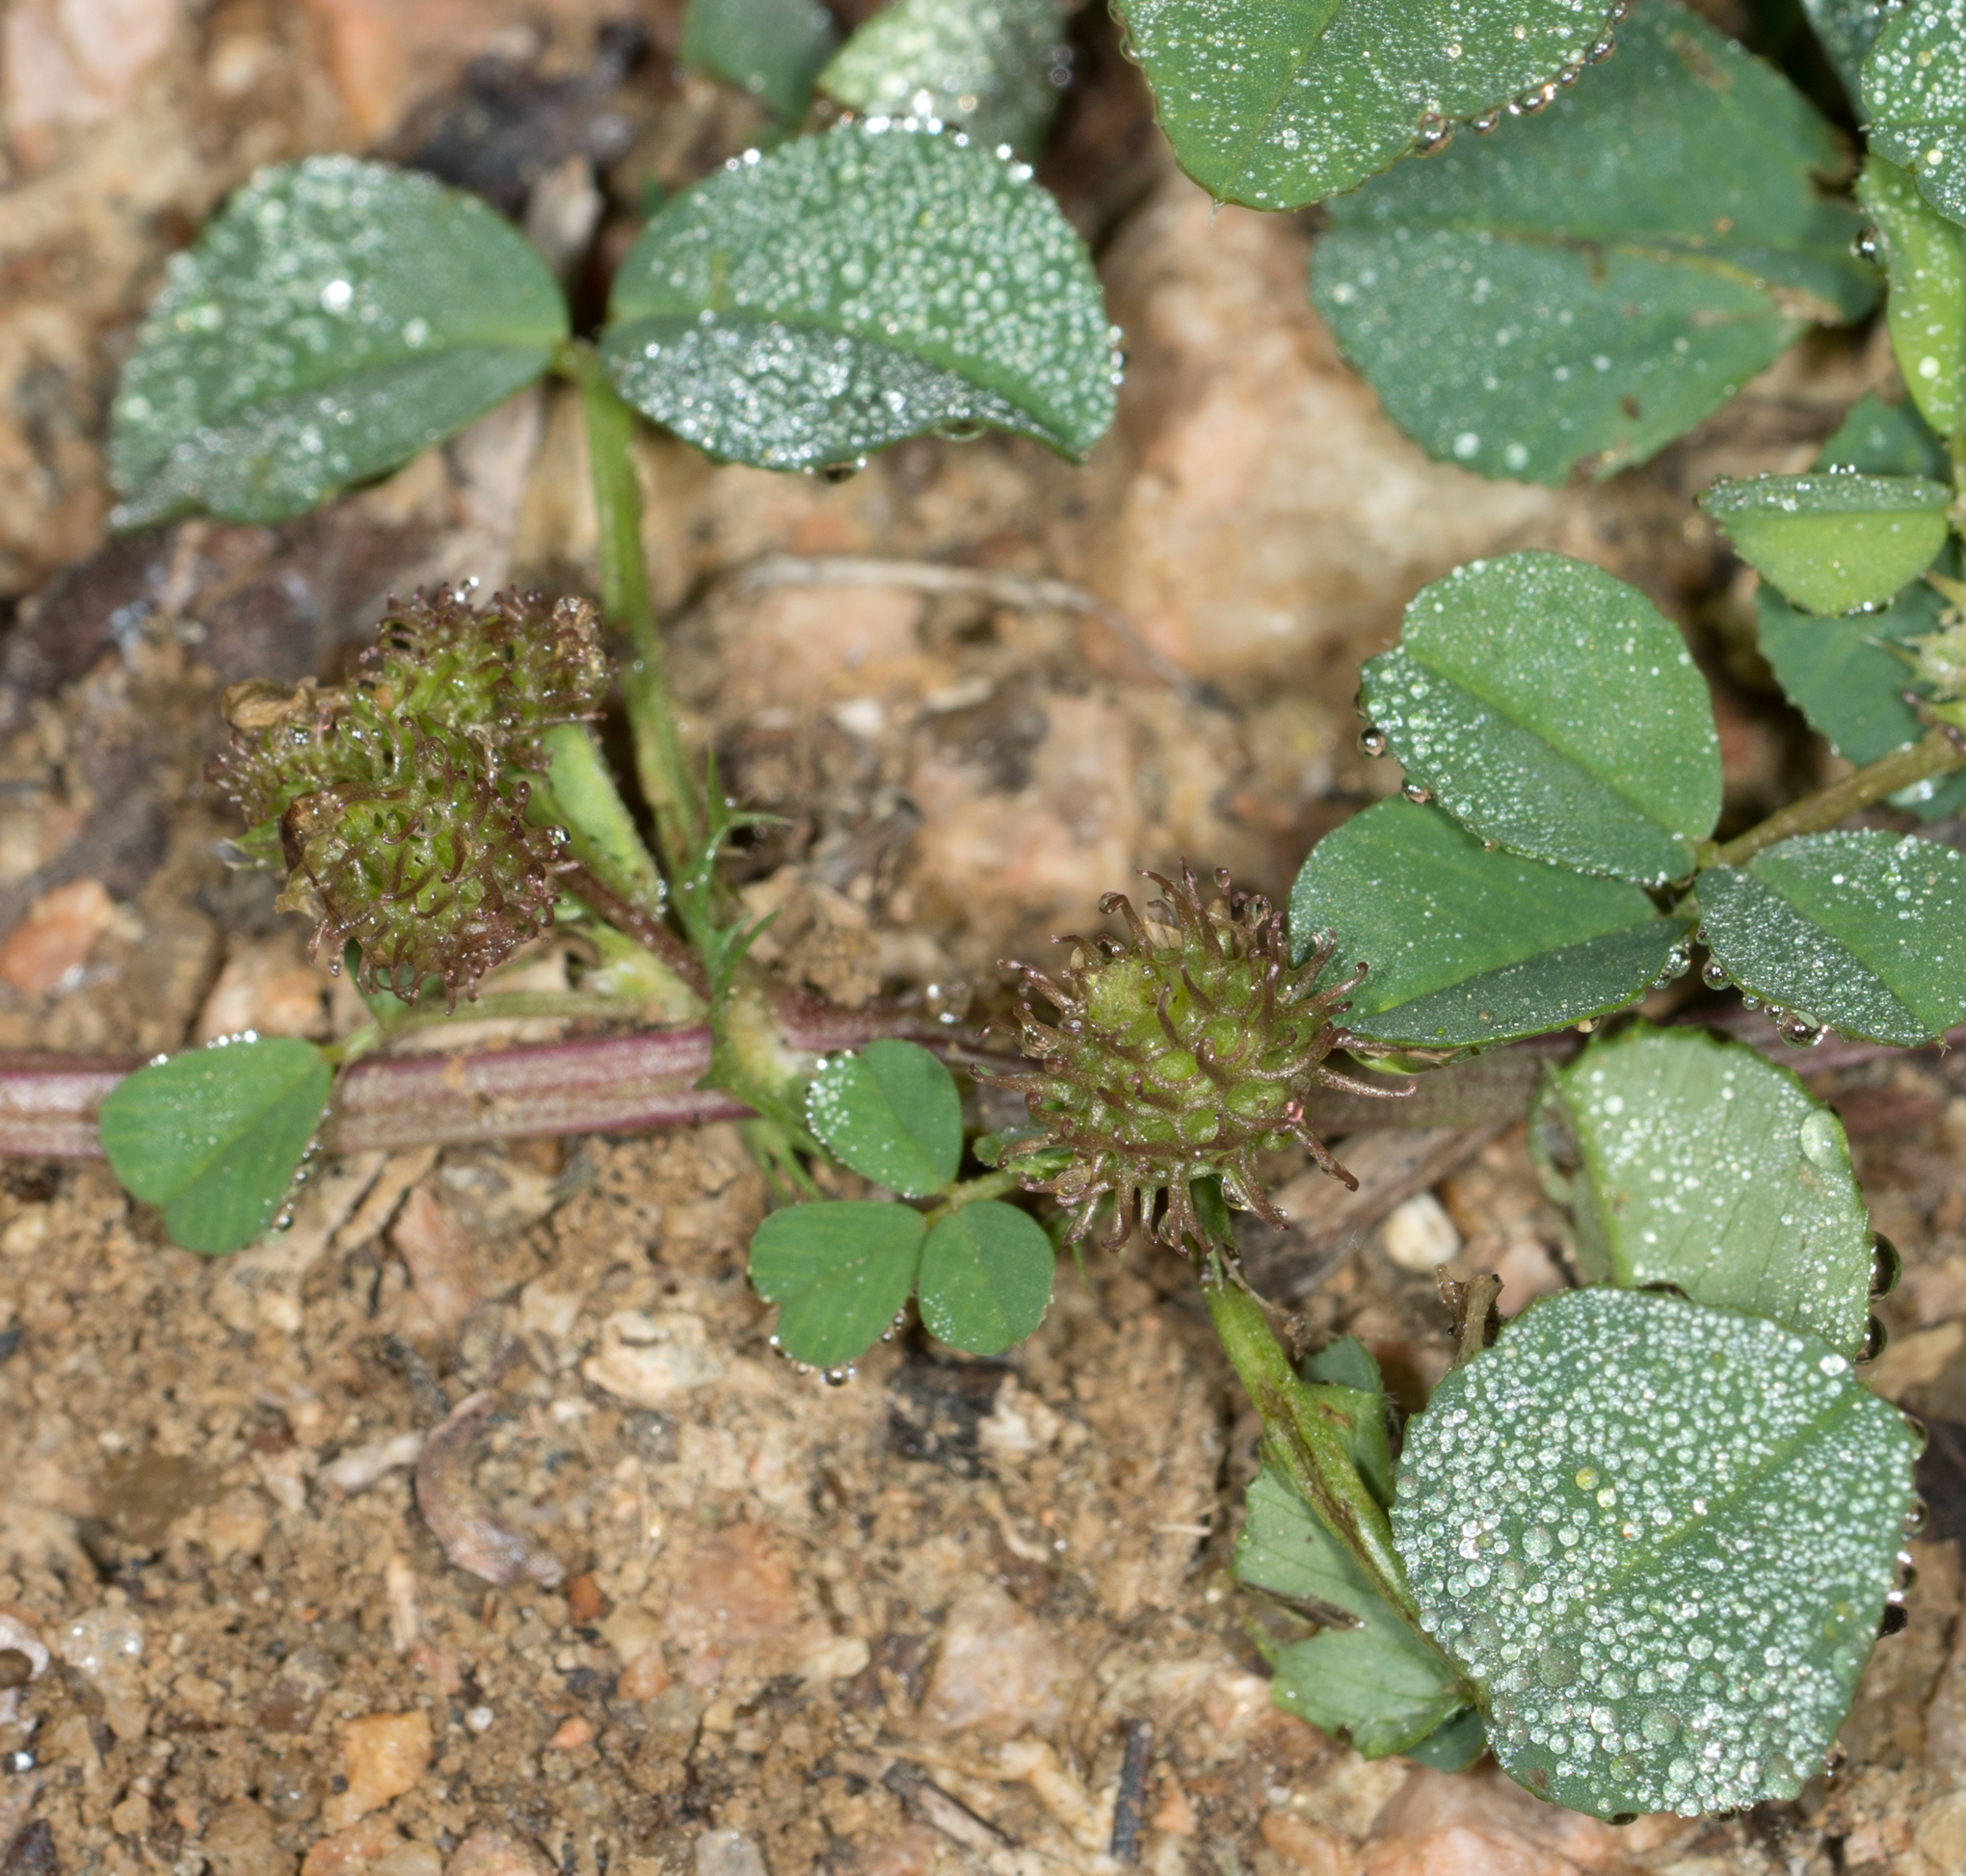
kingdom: Plantae
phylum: Tracheophyta
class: Magnoliopsida
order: Fabales
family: Fabaceae
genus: Medicago
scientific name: Medicago polymorpha
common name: Burclover
